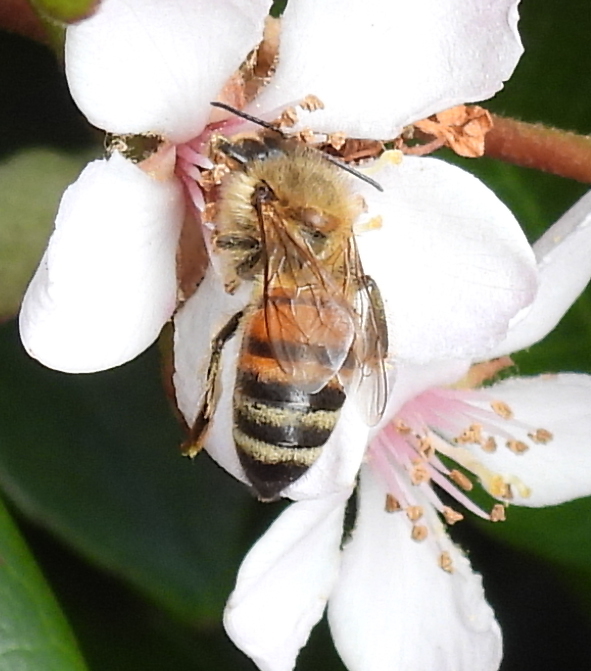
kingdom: Animalia
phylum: Arthropoda
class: Insecta
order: Hymenoptera
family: Apidae
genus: Apis
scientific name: Apis mellifera
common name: Honey bee
